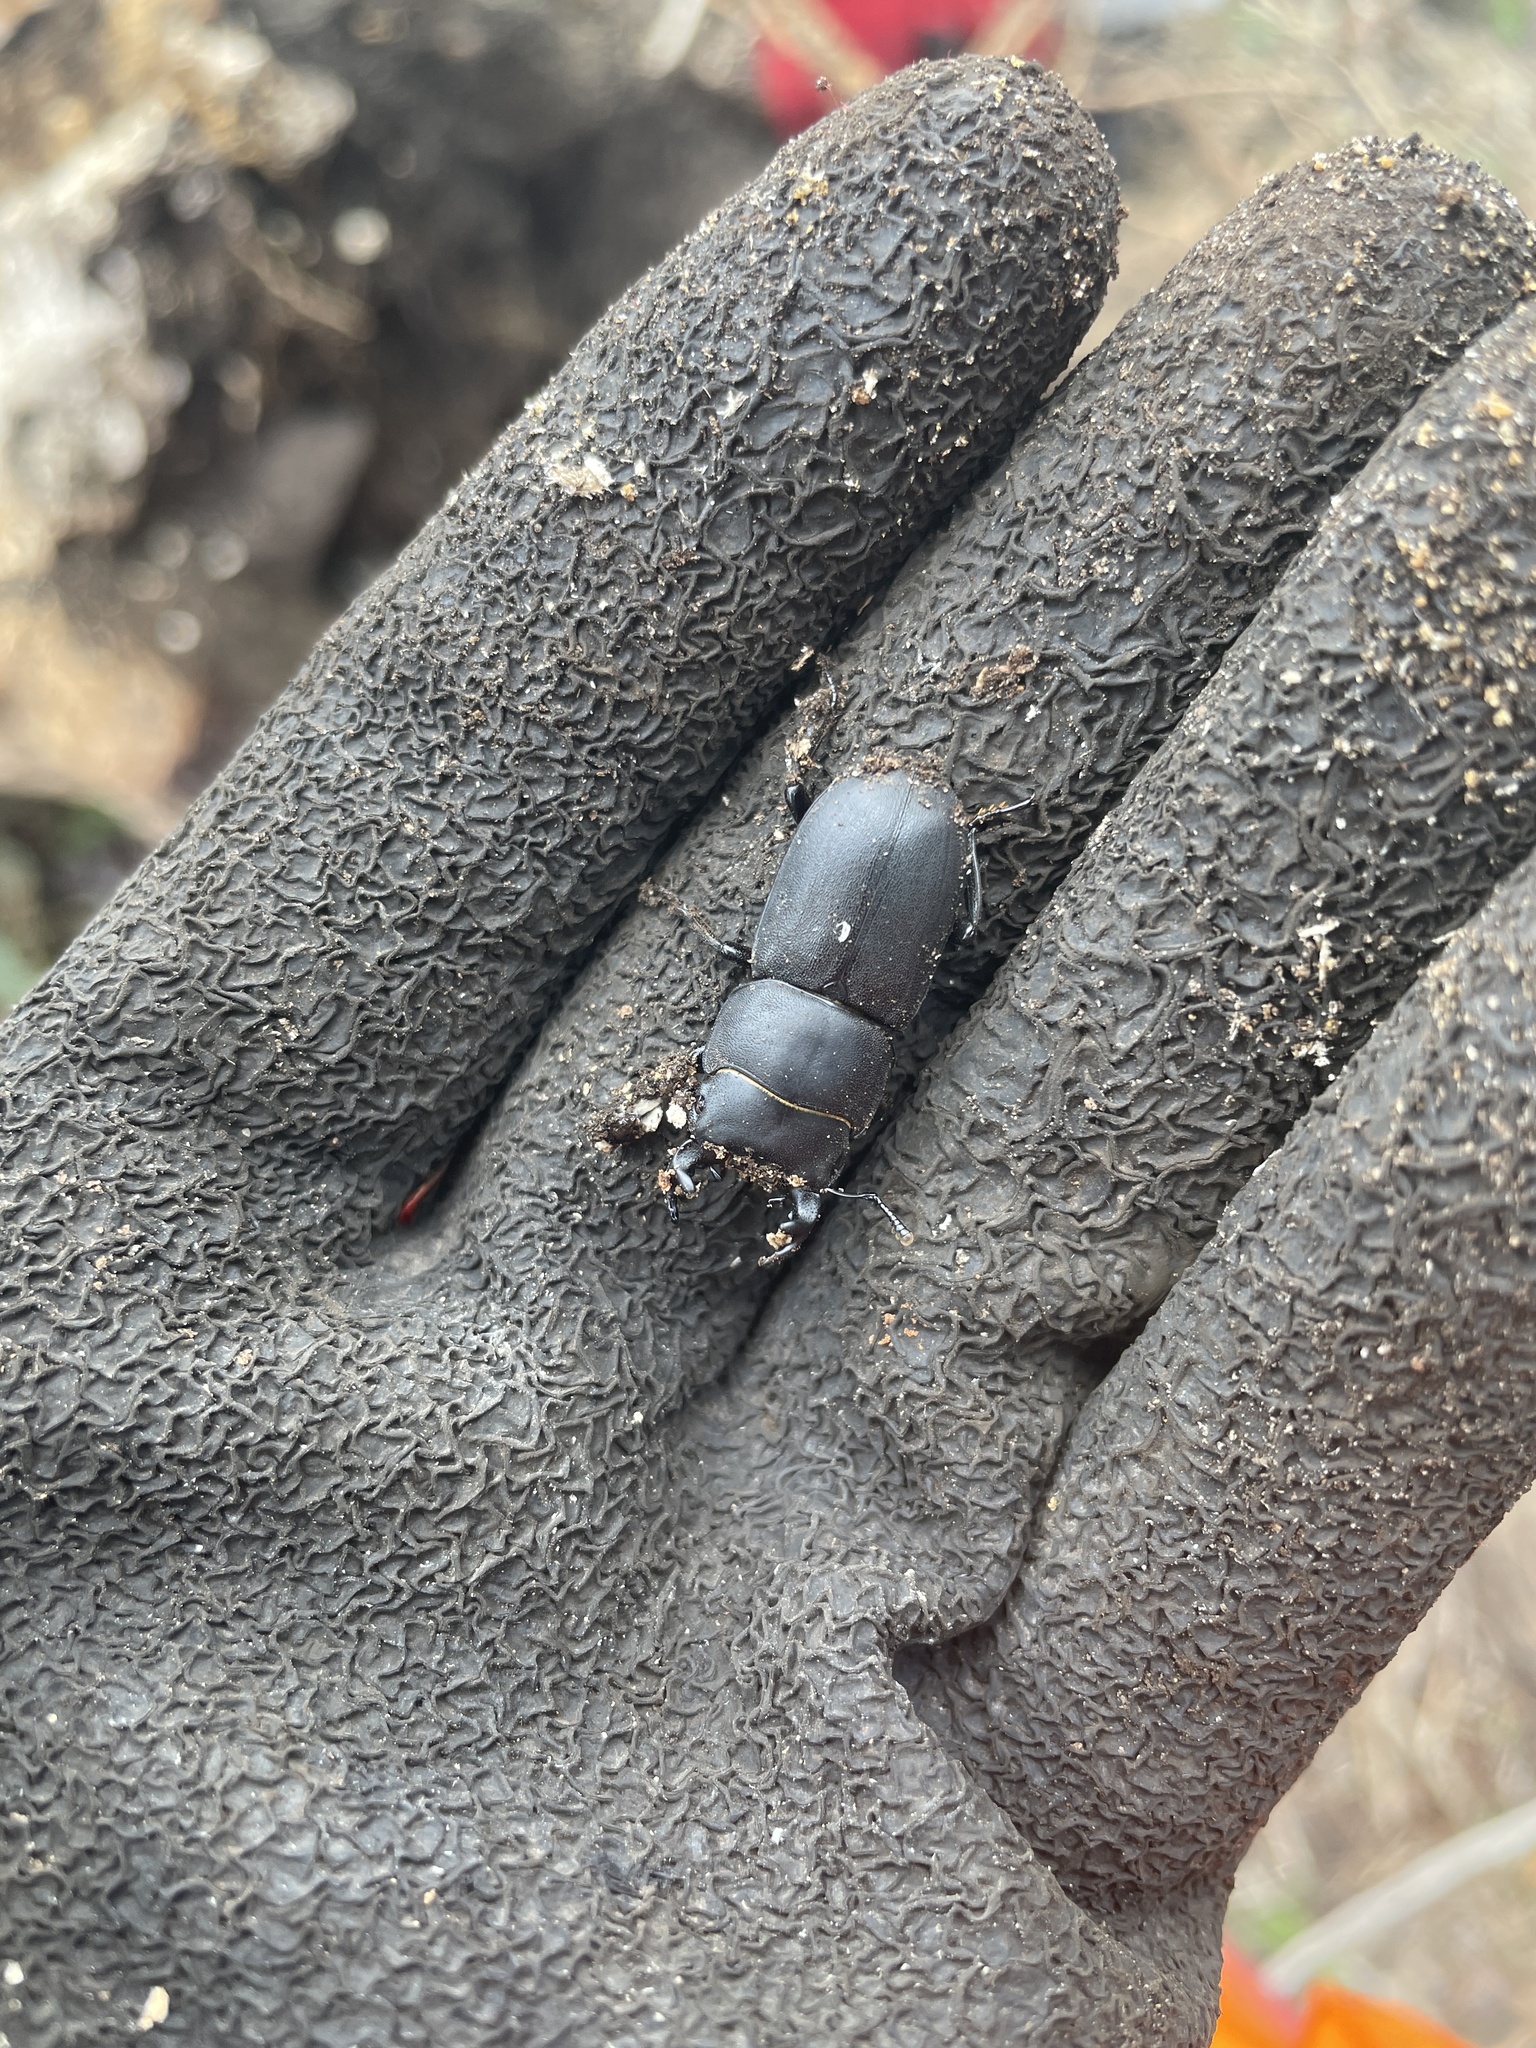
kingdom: Animalia
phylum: Arthropoda
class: Insecta
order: Coleoptera
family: Lucanidae
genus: Dorcus
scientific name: Dorcus parallelipipedus
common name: Lesser stag beetle
